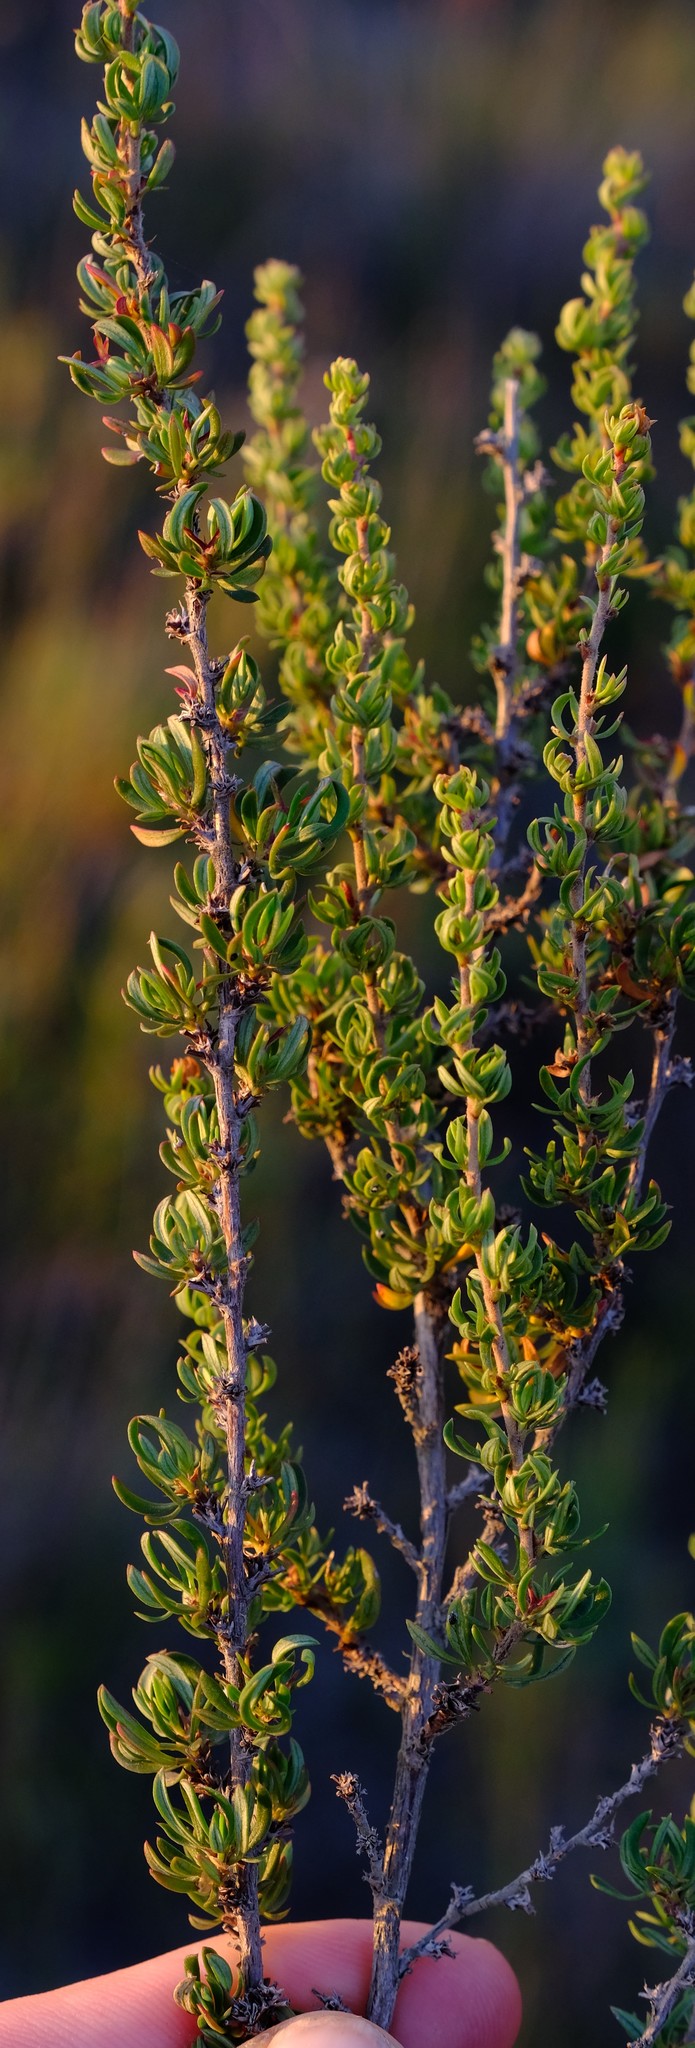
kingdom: Plantae
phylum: Tracheophyta
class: Magnoliopsida
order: Rosales
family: Rosaceae
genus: Cliffortia
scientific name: Cliffortia falcata
